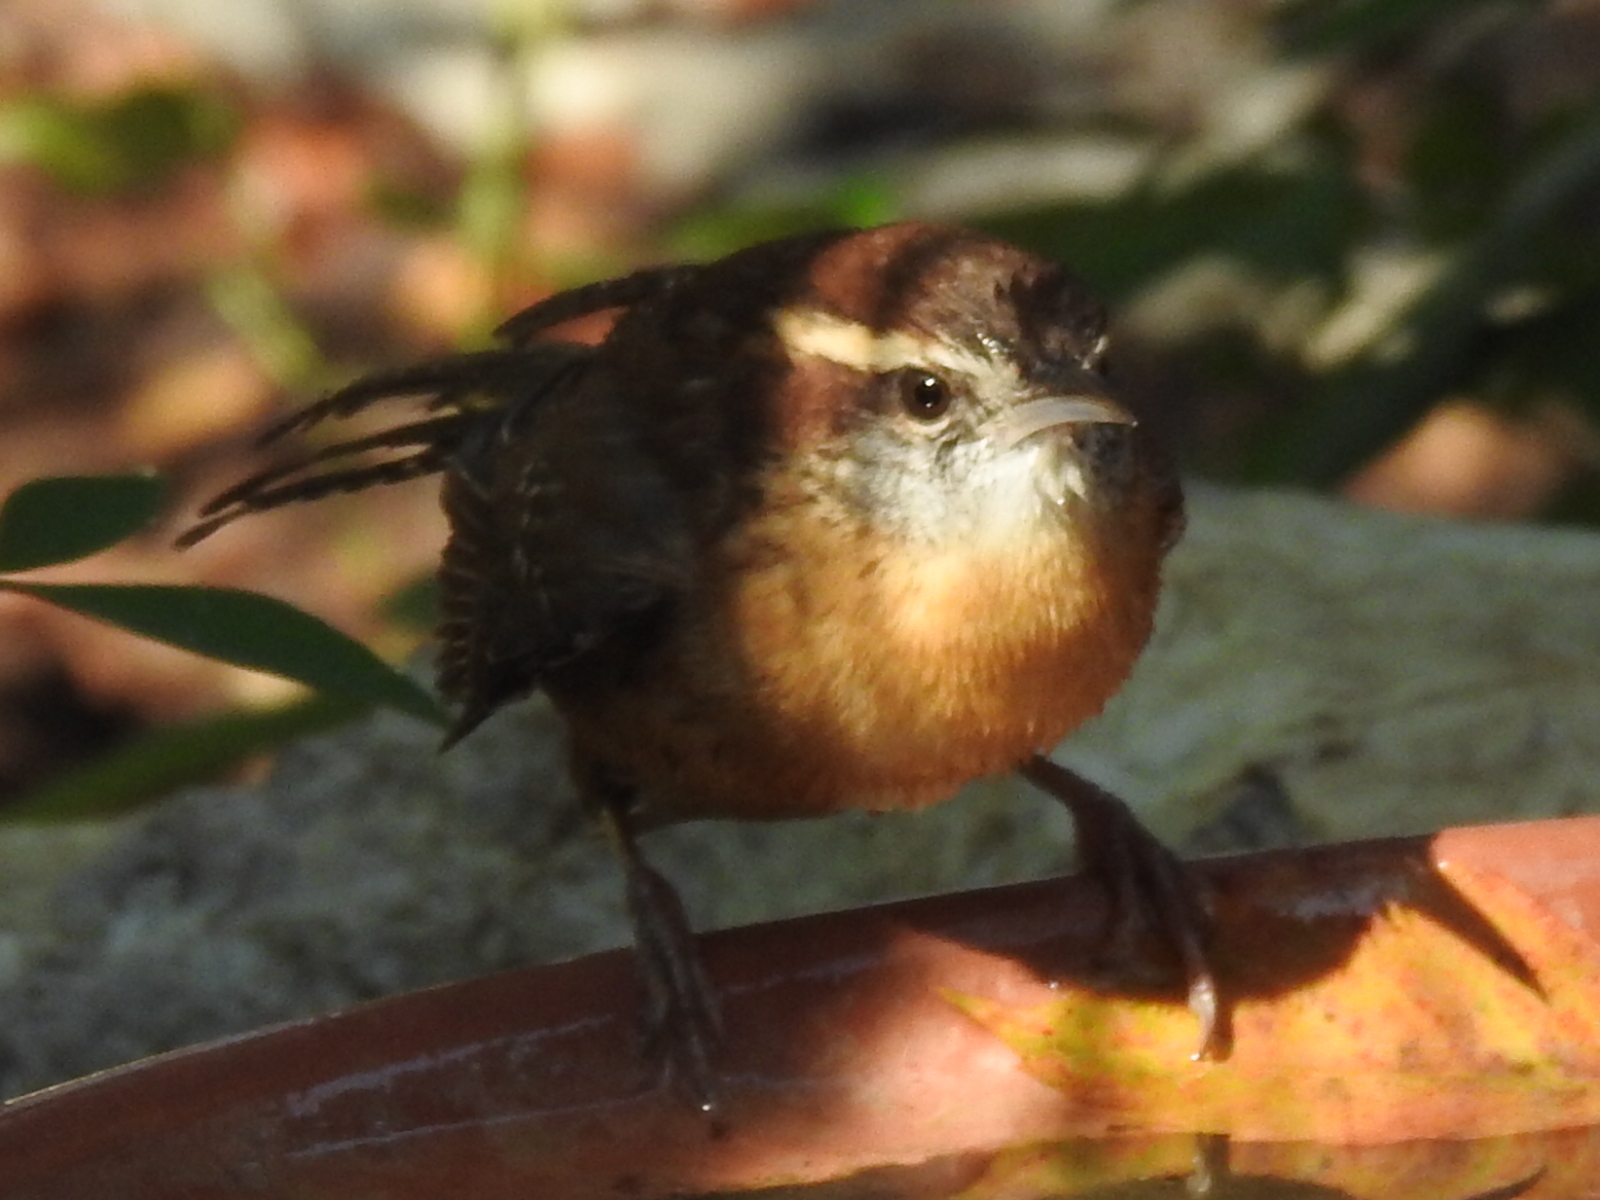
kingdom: Animalia
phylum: Chordata
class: Aves
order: Passeriformes
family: Troglodytidae
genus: Thryothorus
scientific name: Thryothorus ludovicianus
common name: Carolina wren
